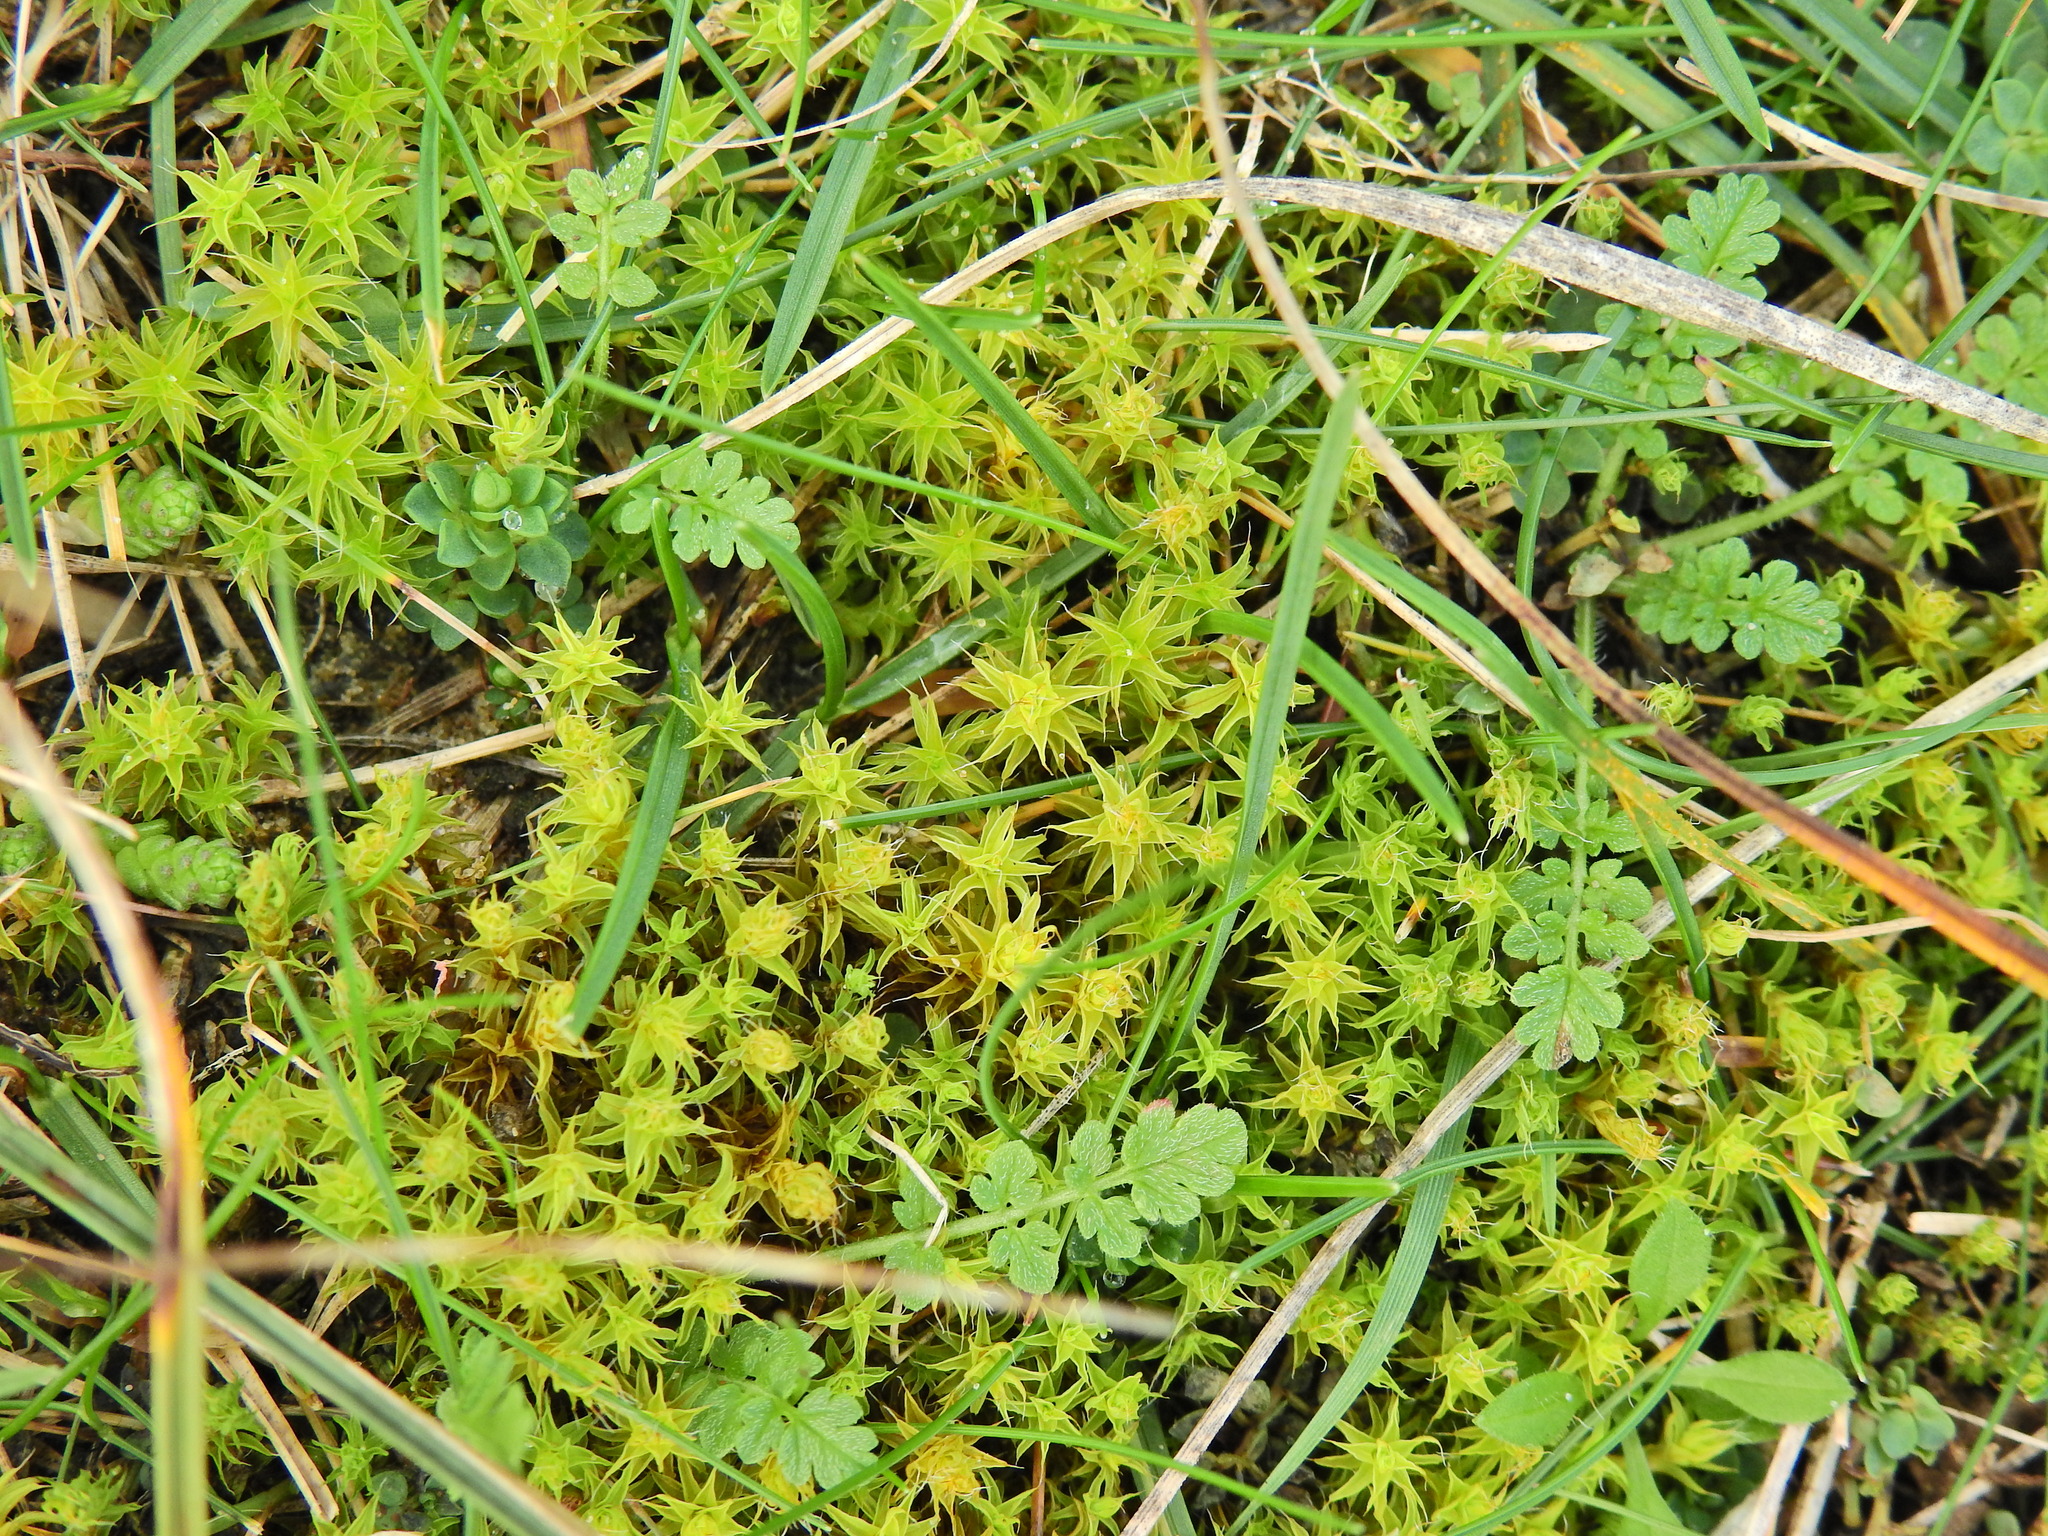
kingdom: Plantae
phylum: Bryophyta
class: Bryopsida
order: Pottiales
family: Pottiaceae
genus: Syntrichia
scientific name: Syntrichia ruralis
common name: Sidewalk screw moss
